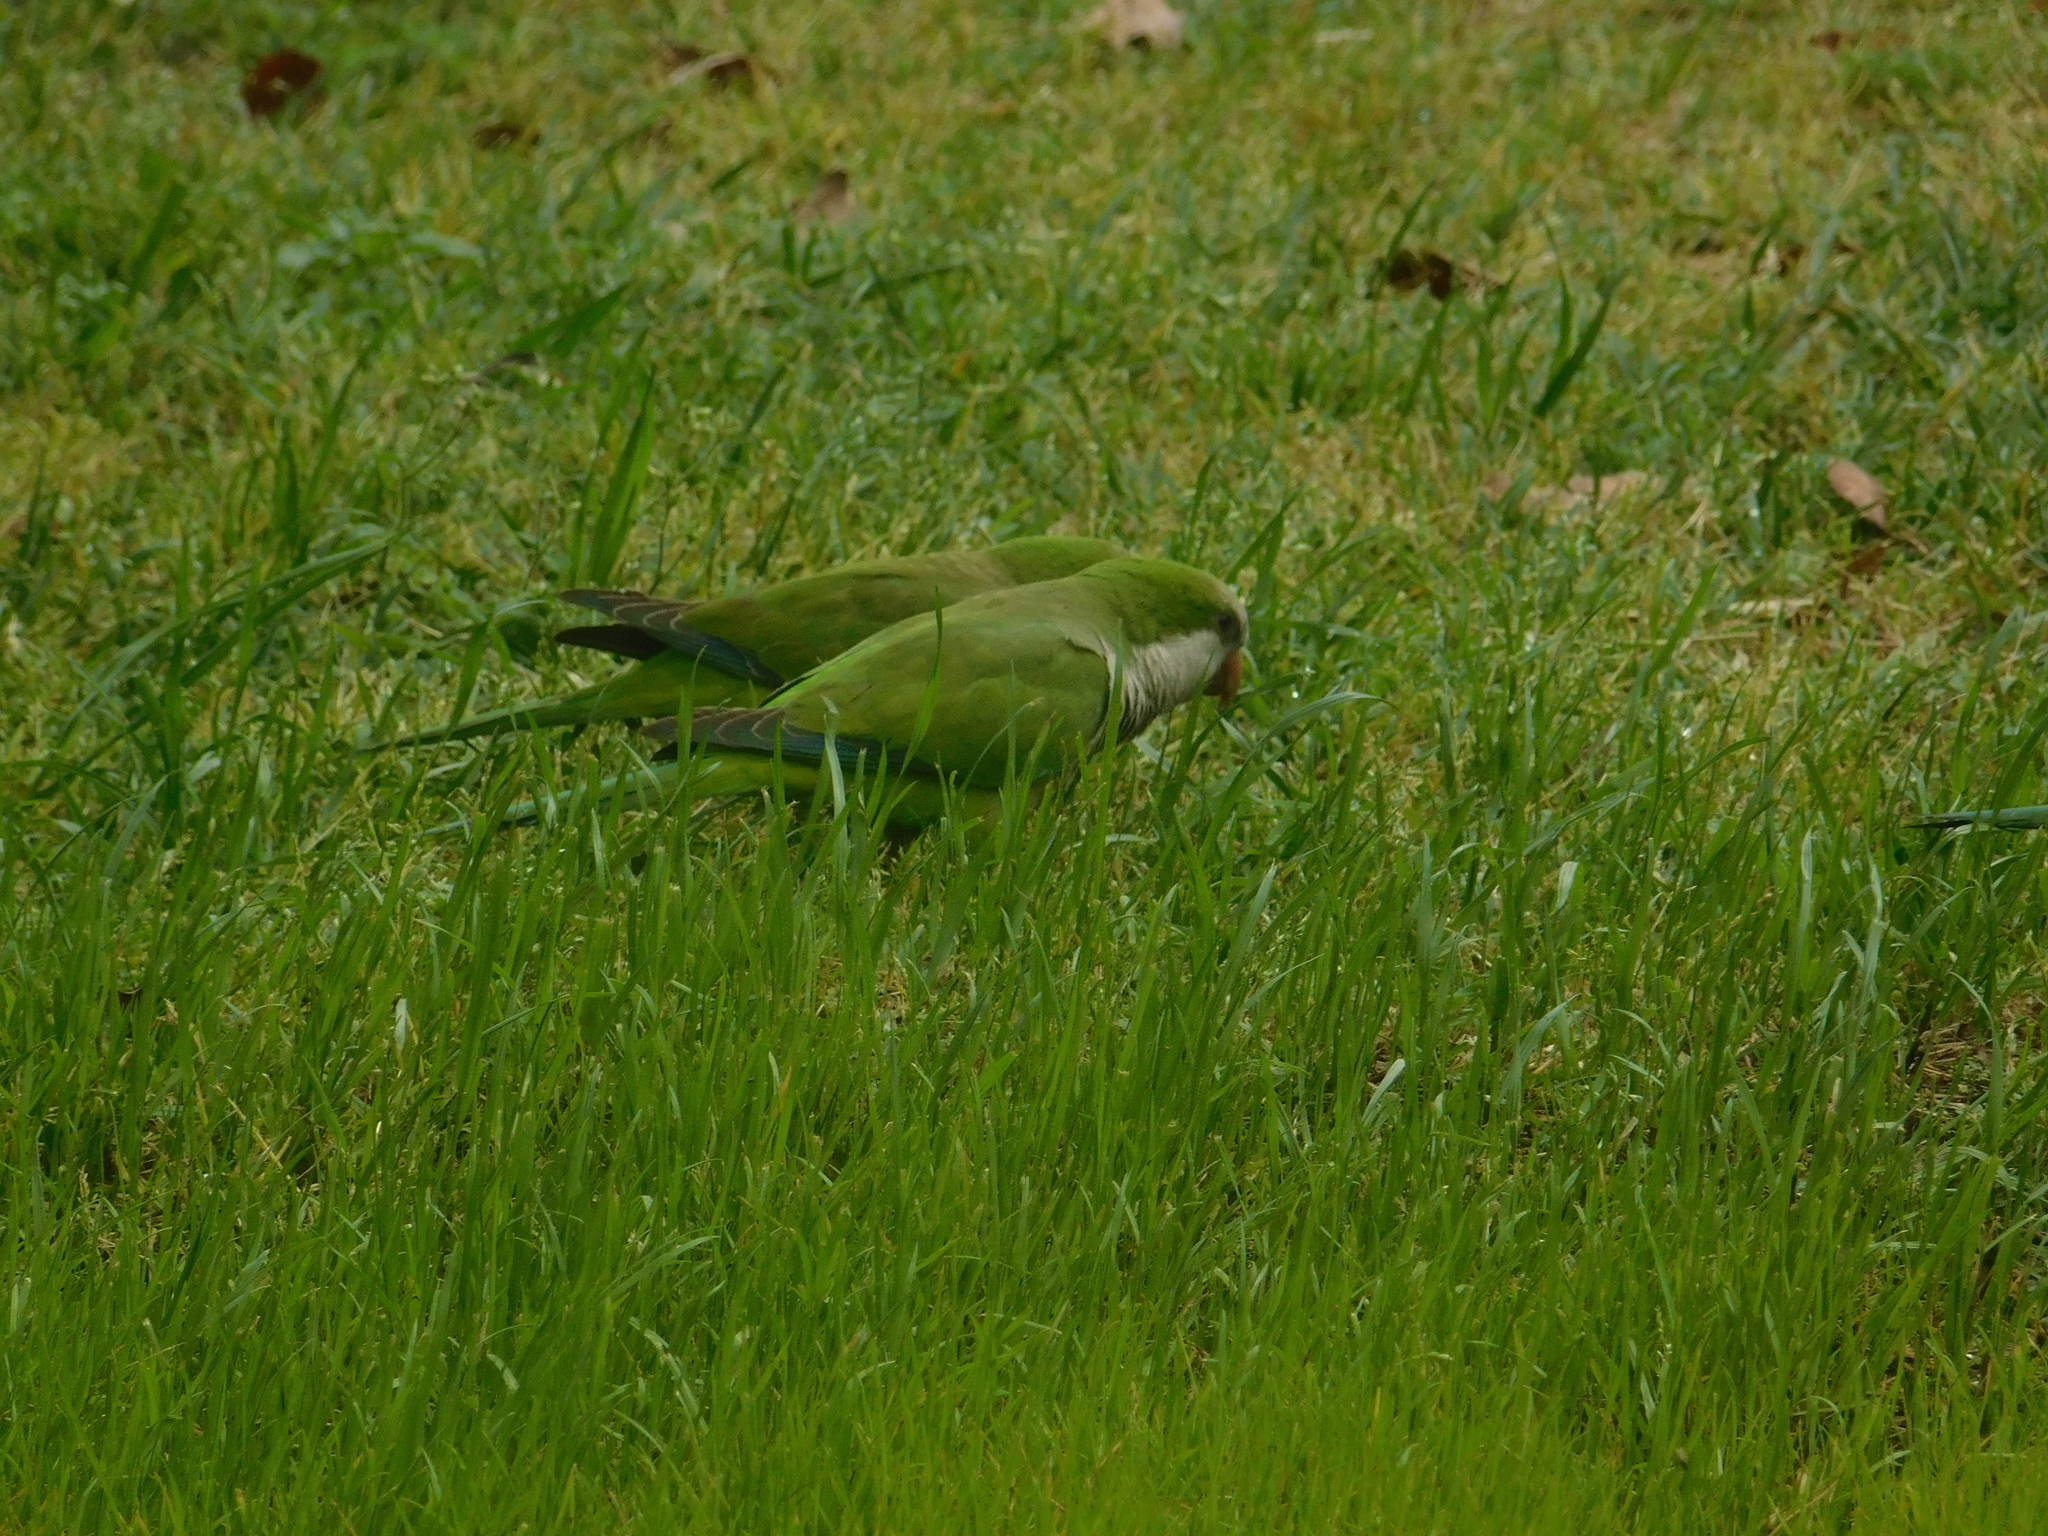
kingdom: Animalia
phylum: Chordata
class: Aves
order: Psittaciformes
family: Psittacidae
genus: Myiopsitta
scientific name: Myiopsitta monachus
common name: Monk parakeet
